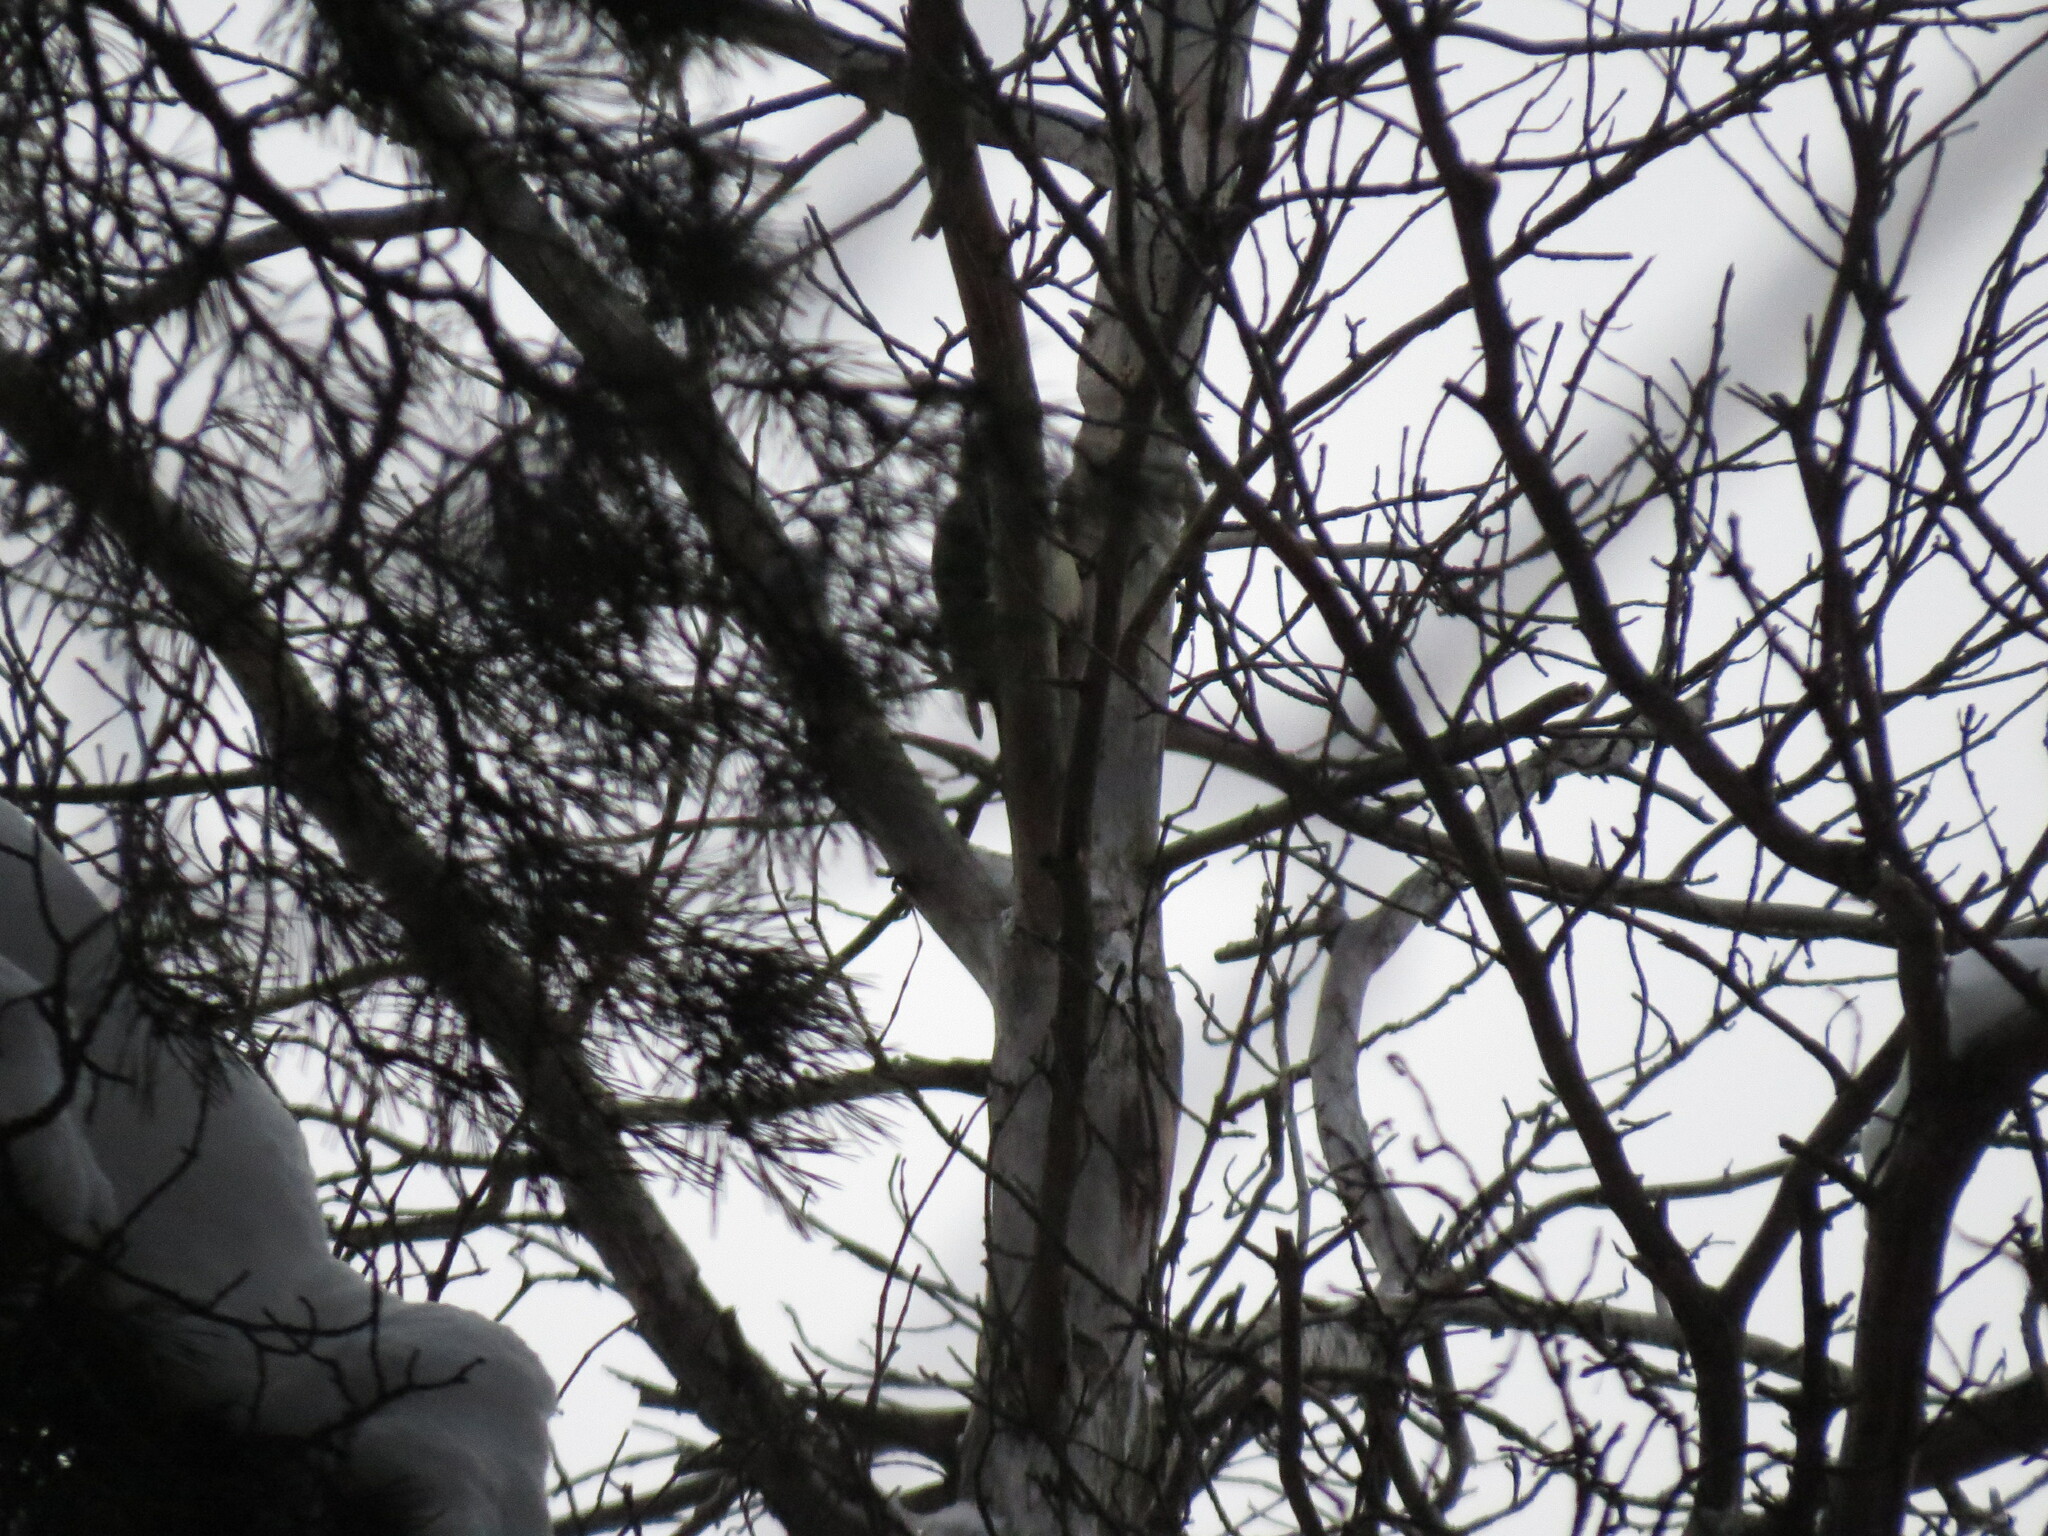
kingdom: Animalia
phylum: Chordata
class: Aves
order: Piciformes
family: Picidae
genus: Dendrocopos
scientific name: Dendrocopos major
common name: Great spotted woodpecker
